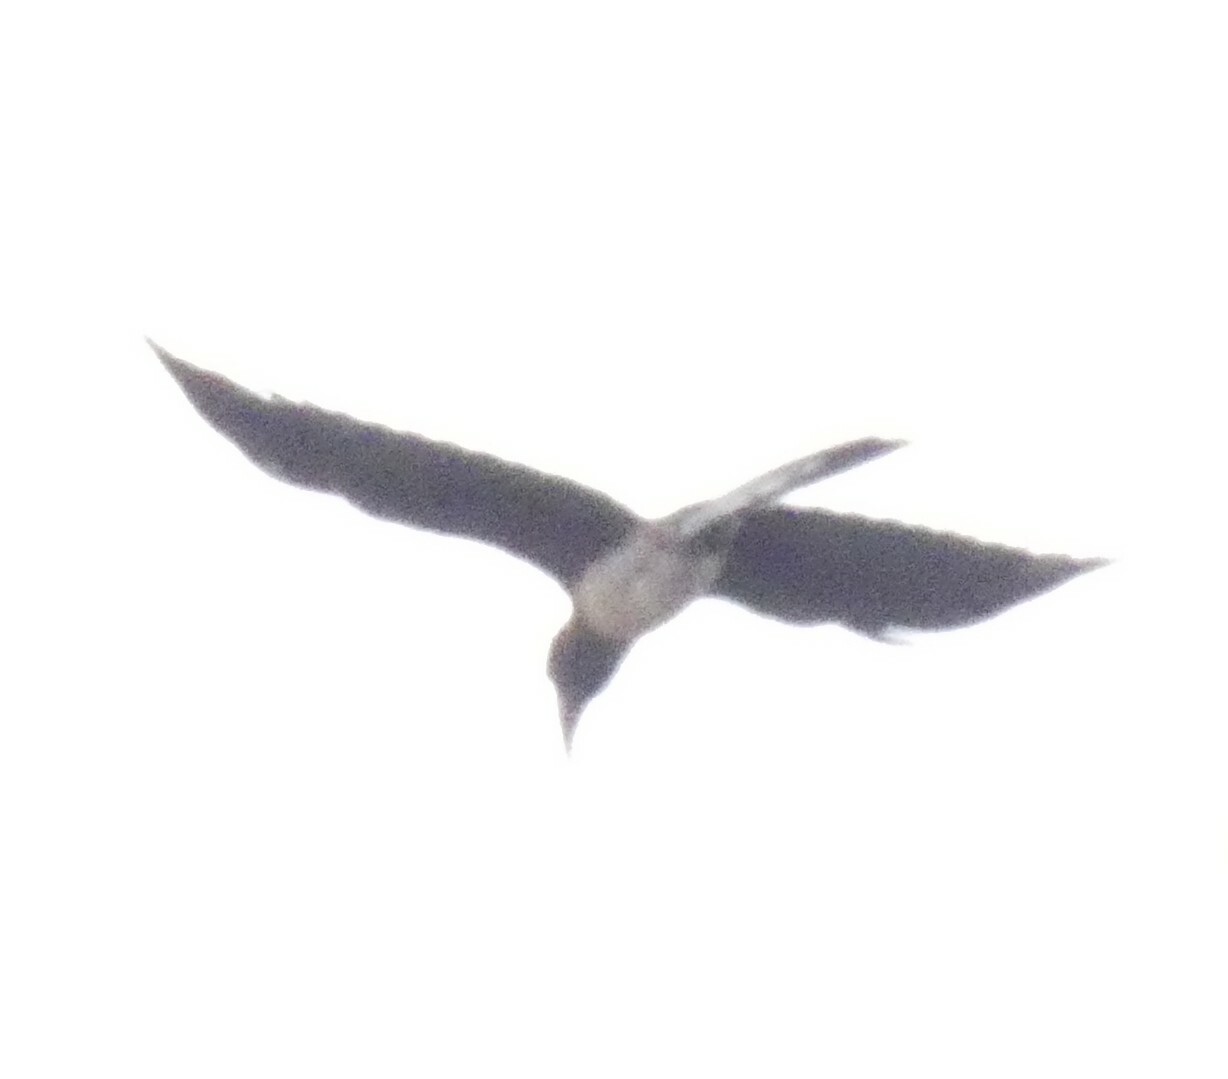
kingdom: Animalia
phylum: Chordata
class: Aves
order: Bucerotiformes
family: Bucerotidae
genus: Lophoceros
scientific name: Lophoceros alboterminatus
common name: Crowned hornbill
